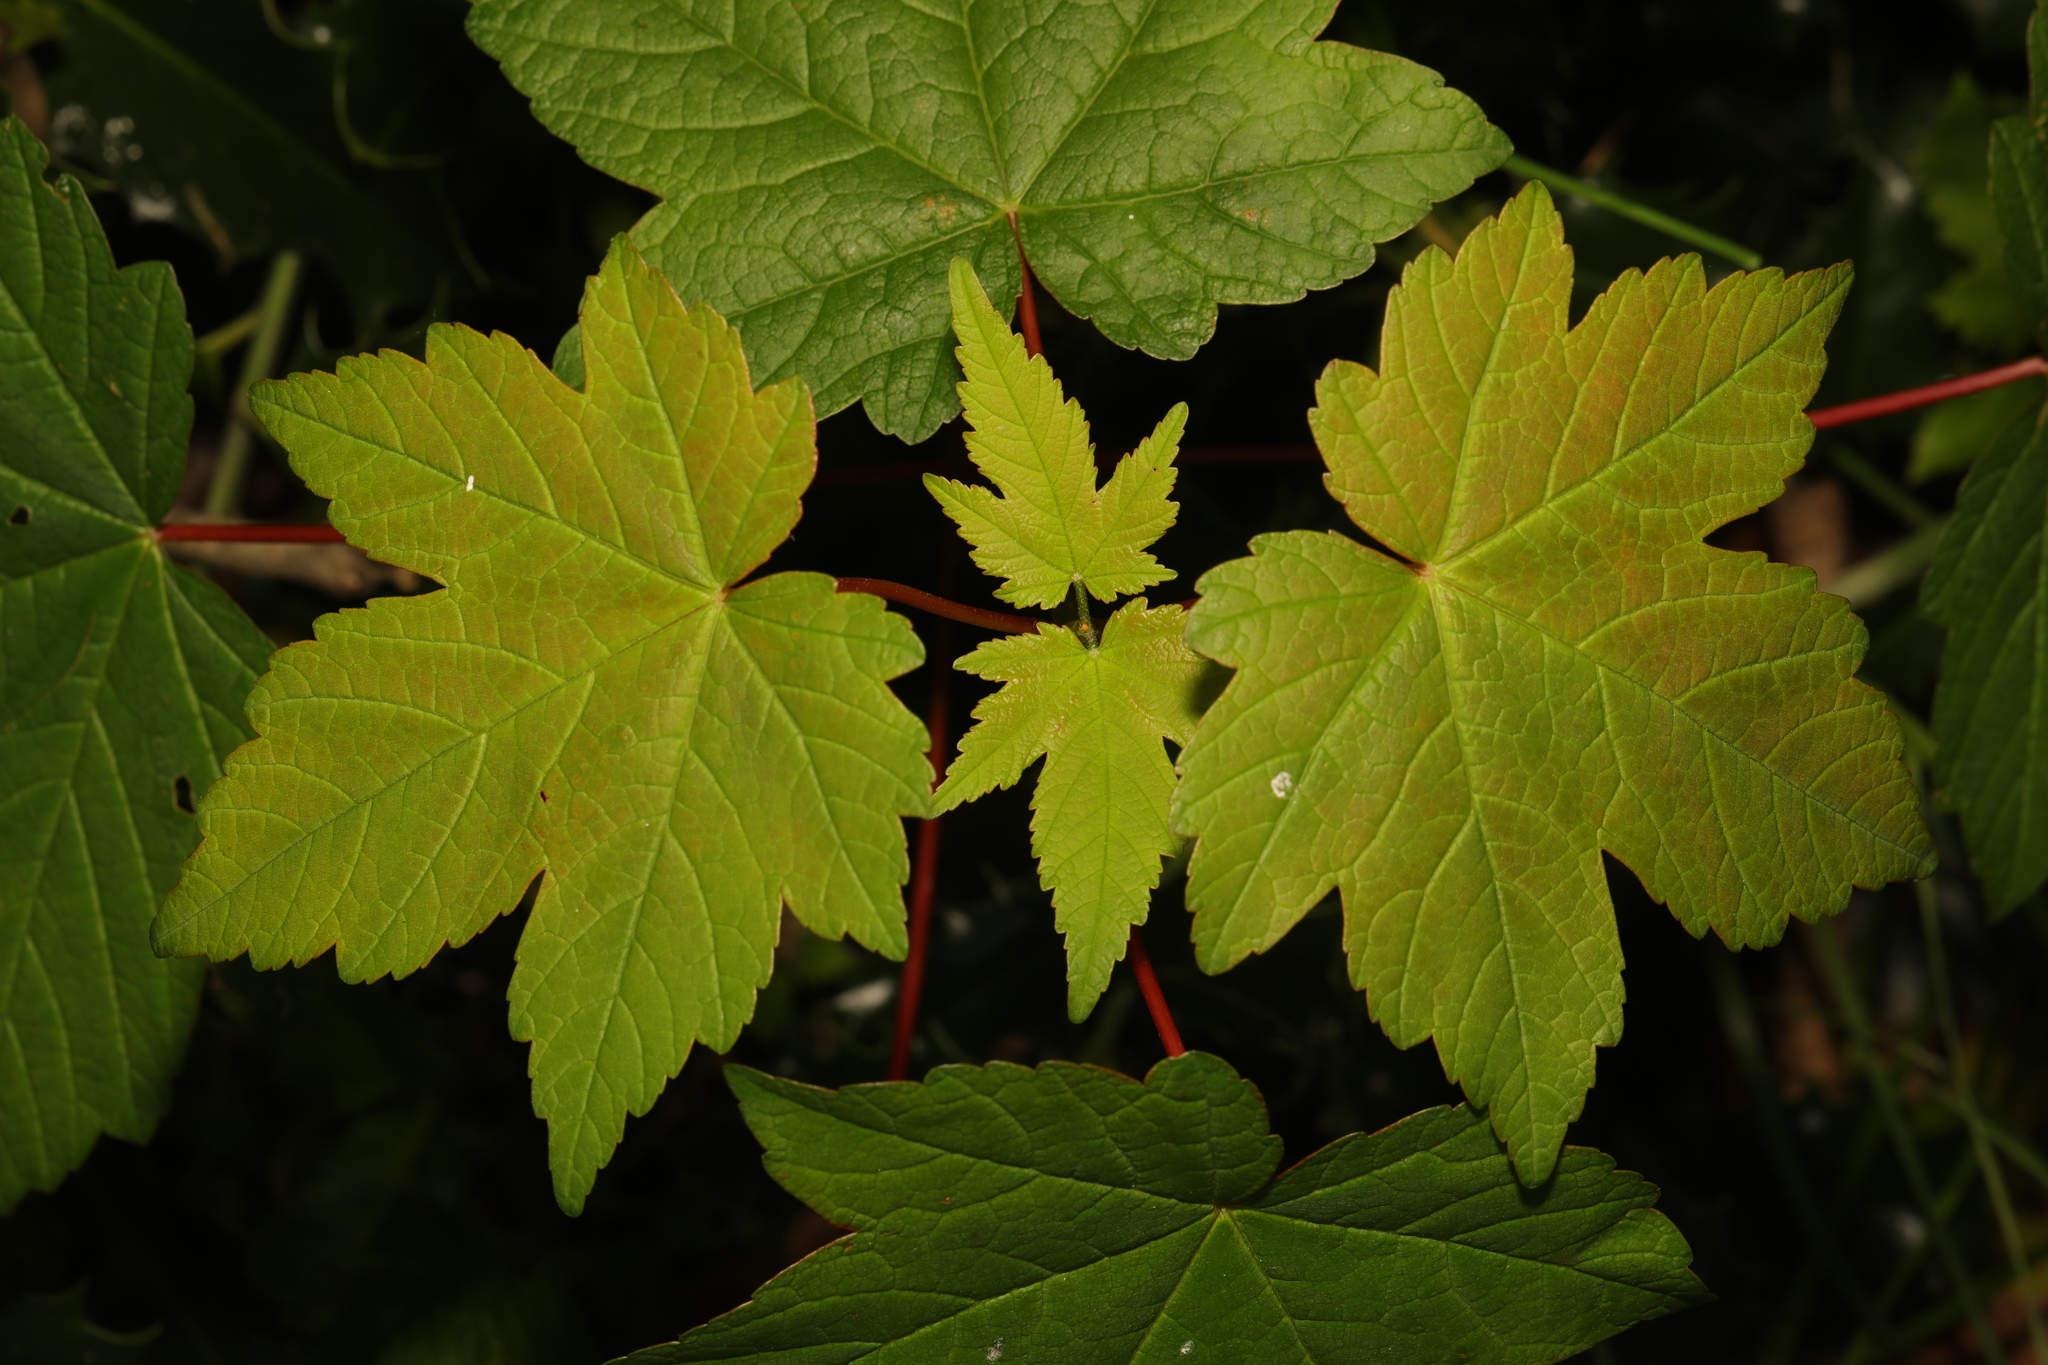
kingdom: Plantae
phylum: Tracheophyta
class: Magnoliopsida
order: Sapindales
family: Sapindaceae
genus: Acer
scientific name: Acer pseudoplatanus
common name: Sycamore
